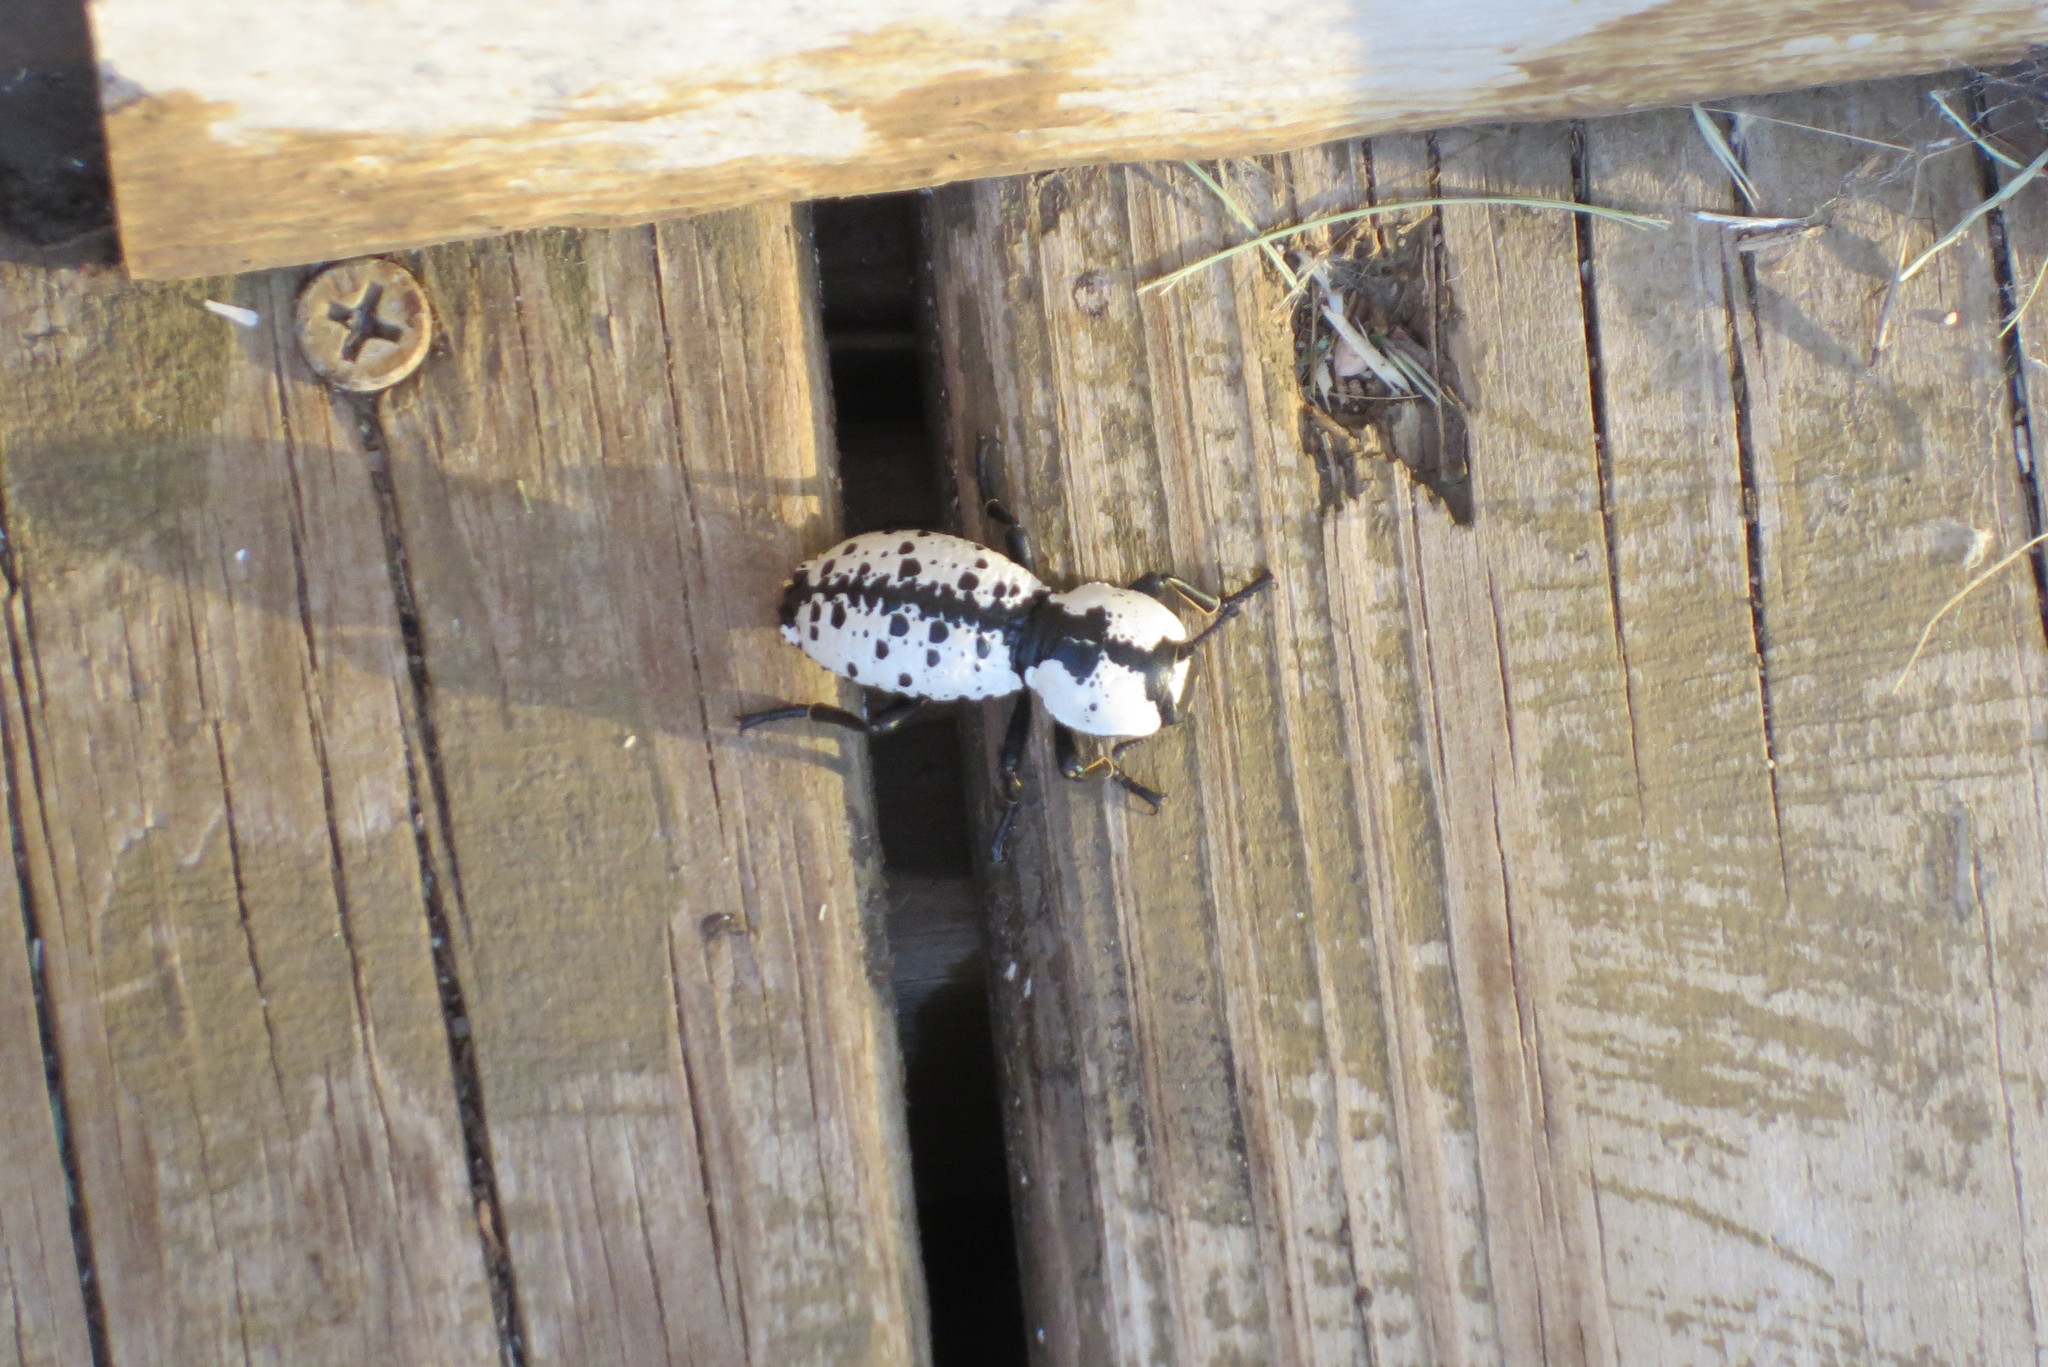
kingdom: Animalia
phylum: Arthropoda
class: Insecta
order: Coleoptera
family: Zopheridae
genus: Zopherus
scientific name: Zopherus nodulosus
